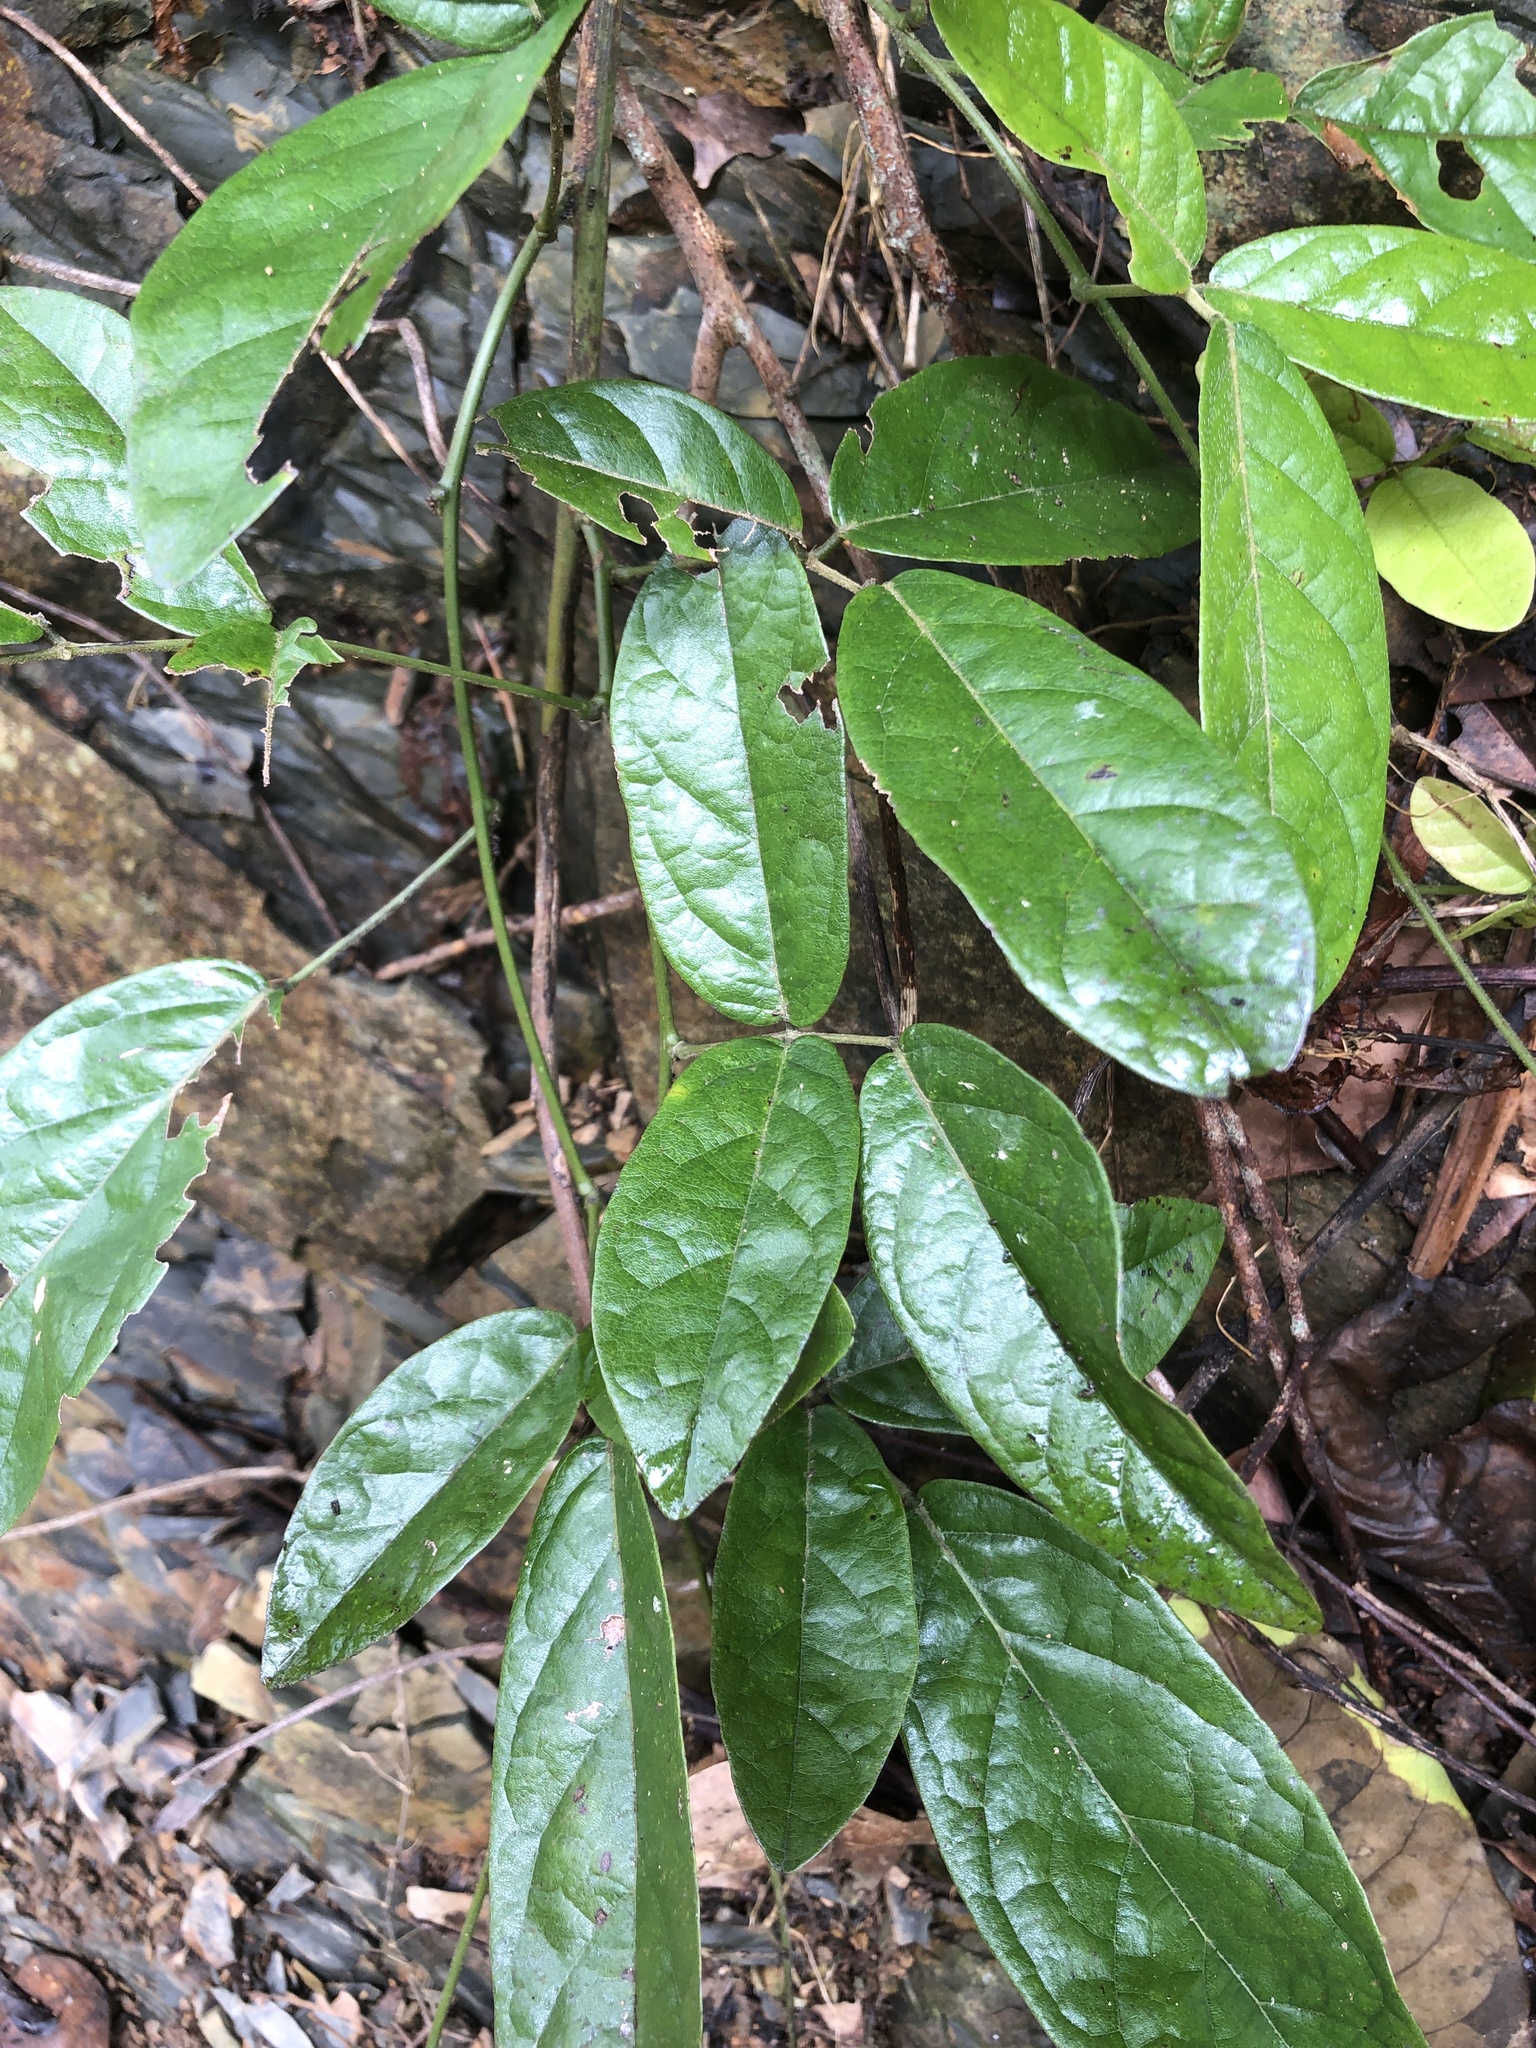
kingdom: Plantae
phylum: Tracheophyta
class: Magnoliopsida
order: Fabales
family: Fabaceae
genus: Callerya
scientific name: Callerya nitida
